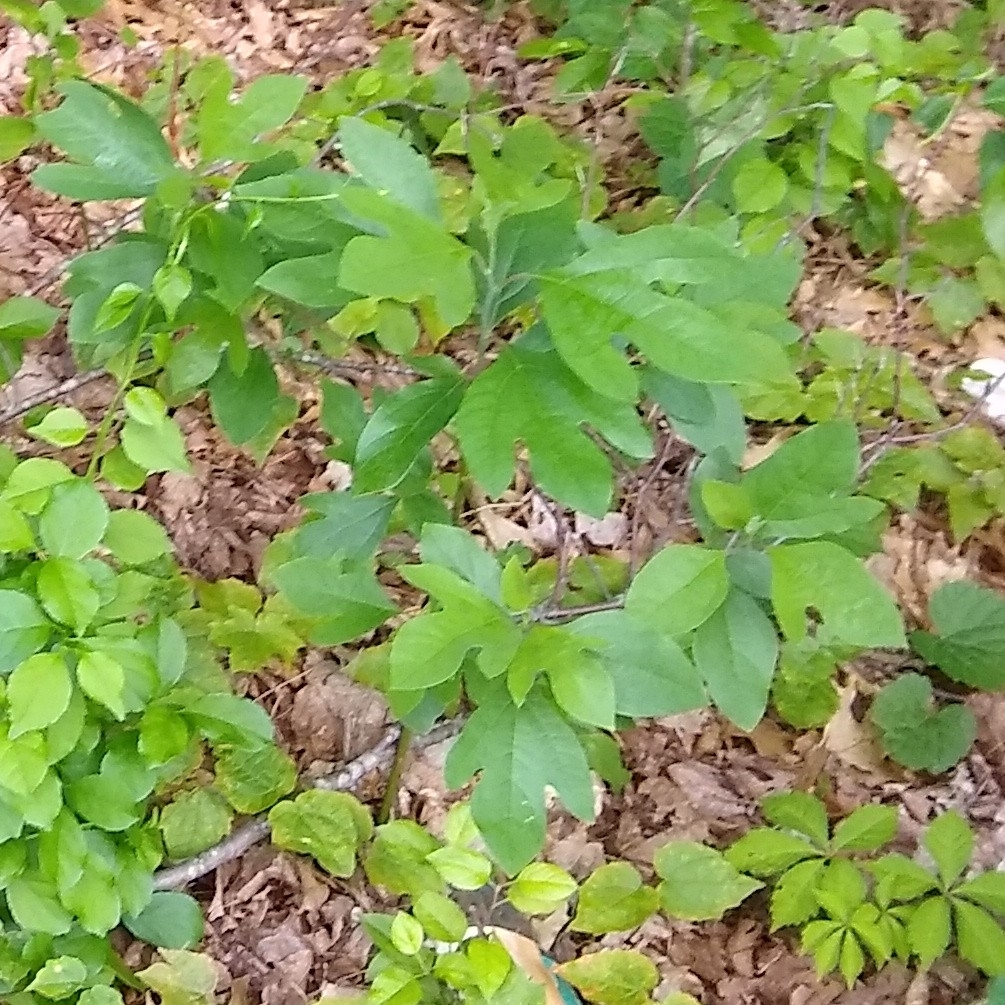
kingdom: Plantae
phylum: Tracheophyta
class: Magnoliopsida
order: Laurales
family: Lauraceae
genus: Sassafras
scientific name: Sassafras albidum
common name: Sassafras
